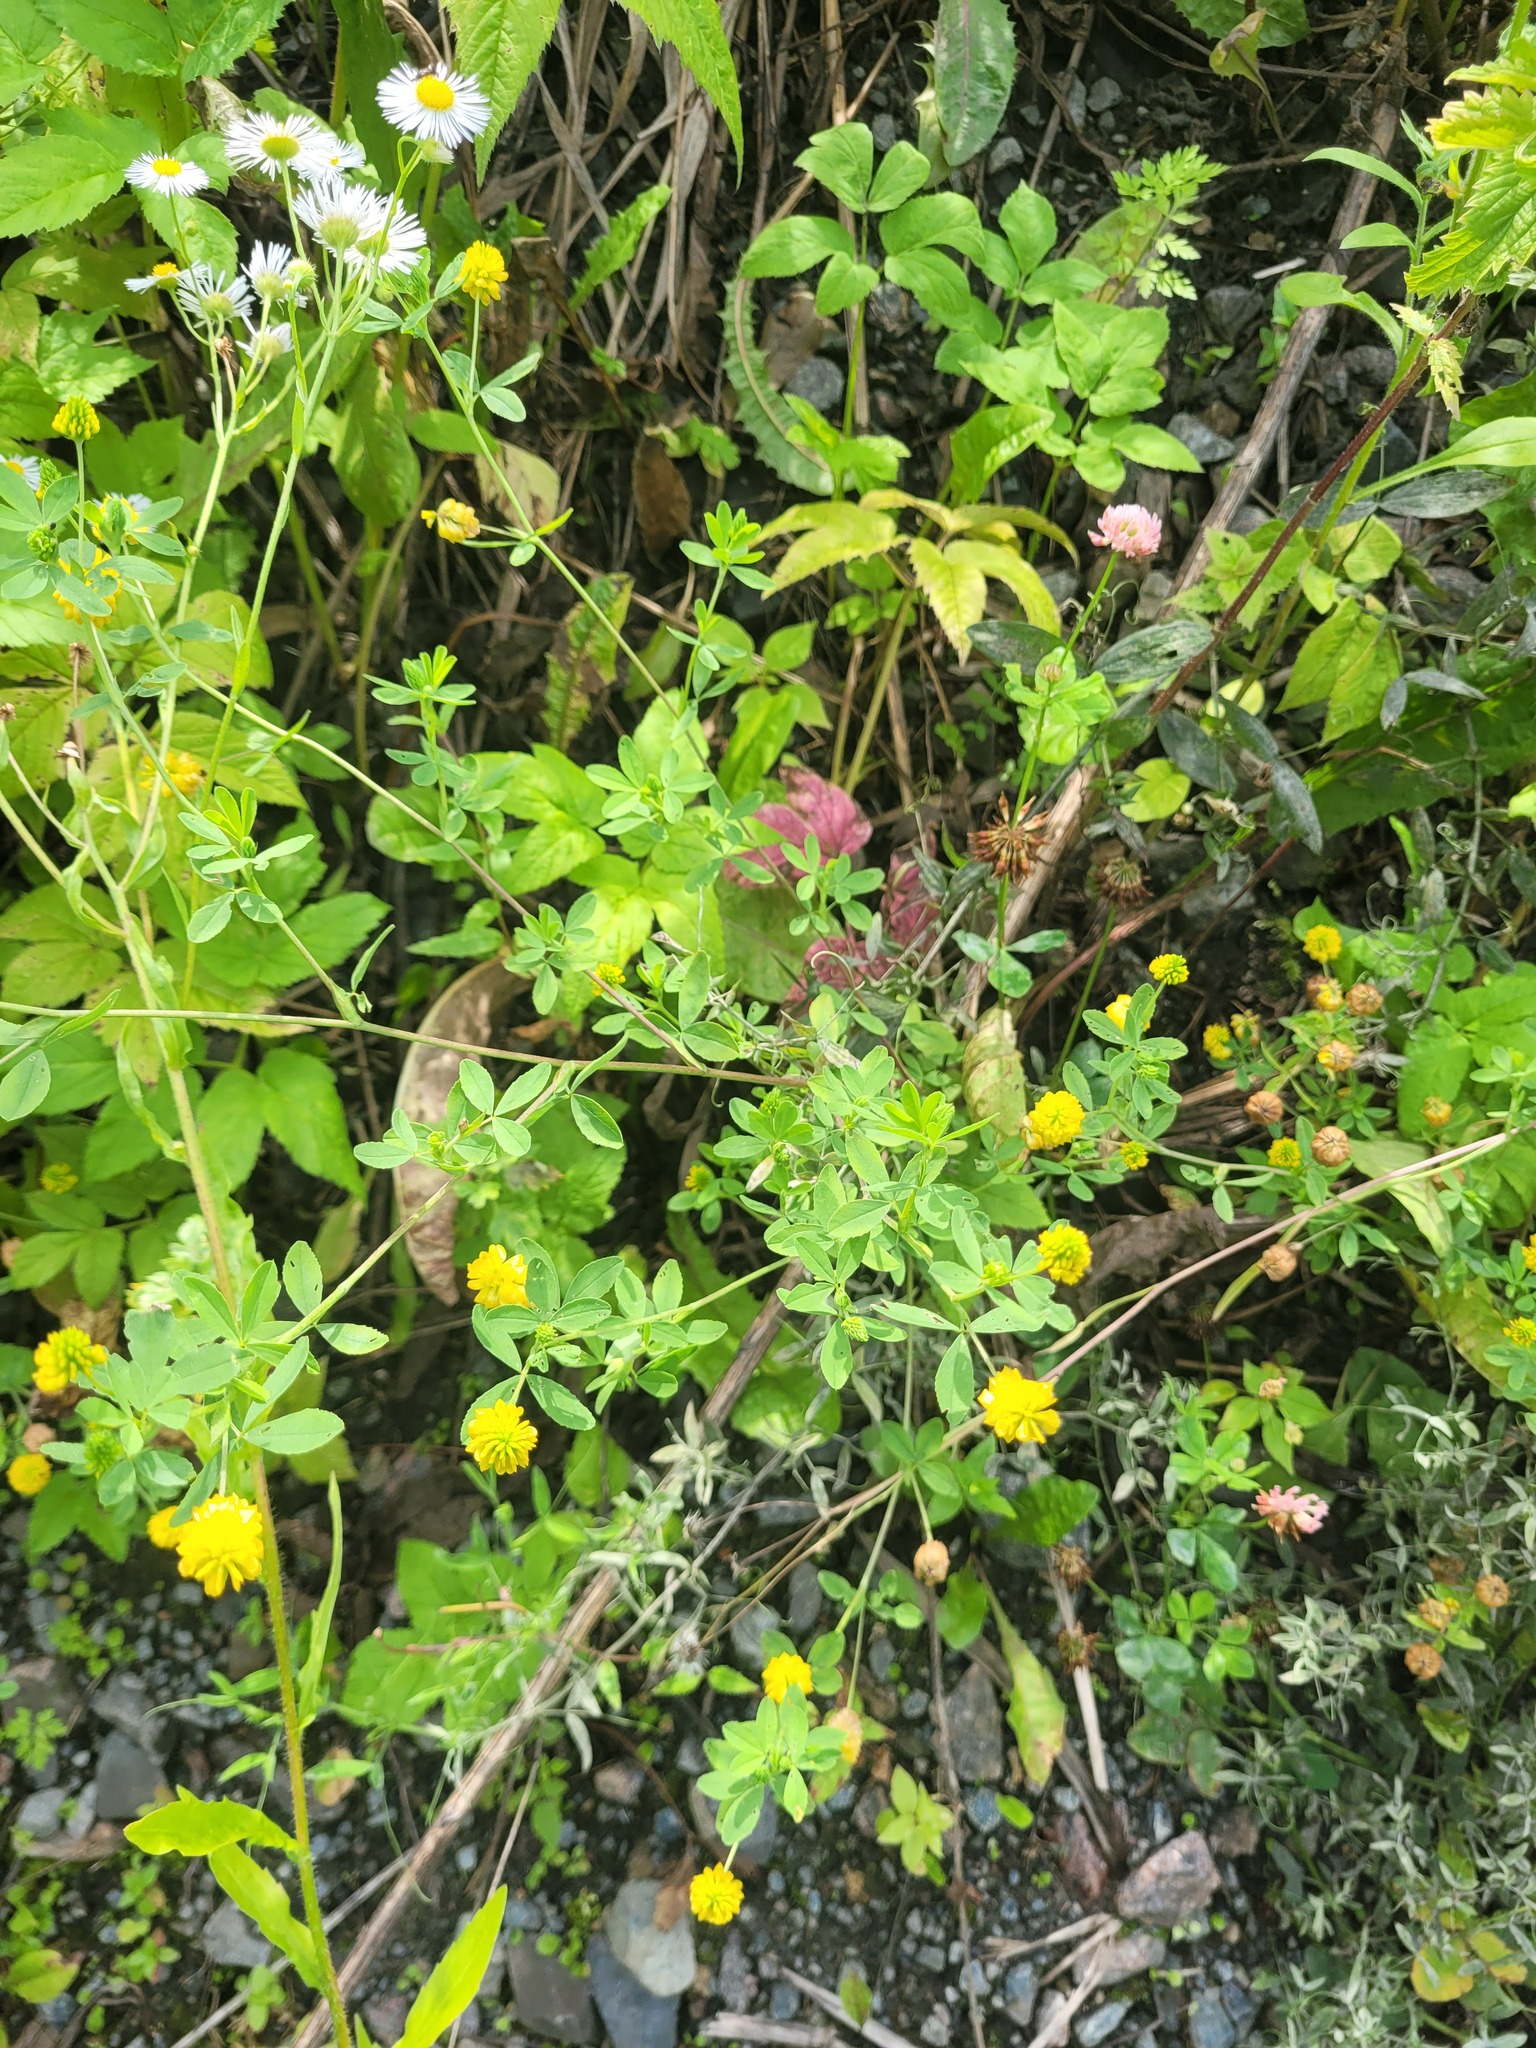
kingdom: Plantae
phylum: Tracheophyta
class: Magnoliopsida
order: Fabales
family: Fabaceae
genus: Trifolium
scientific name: Trifolium aureum
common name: Golden clover
